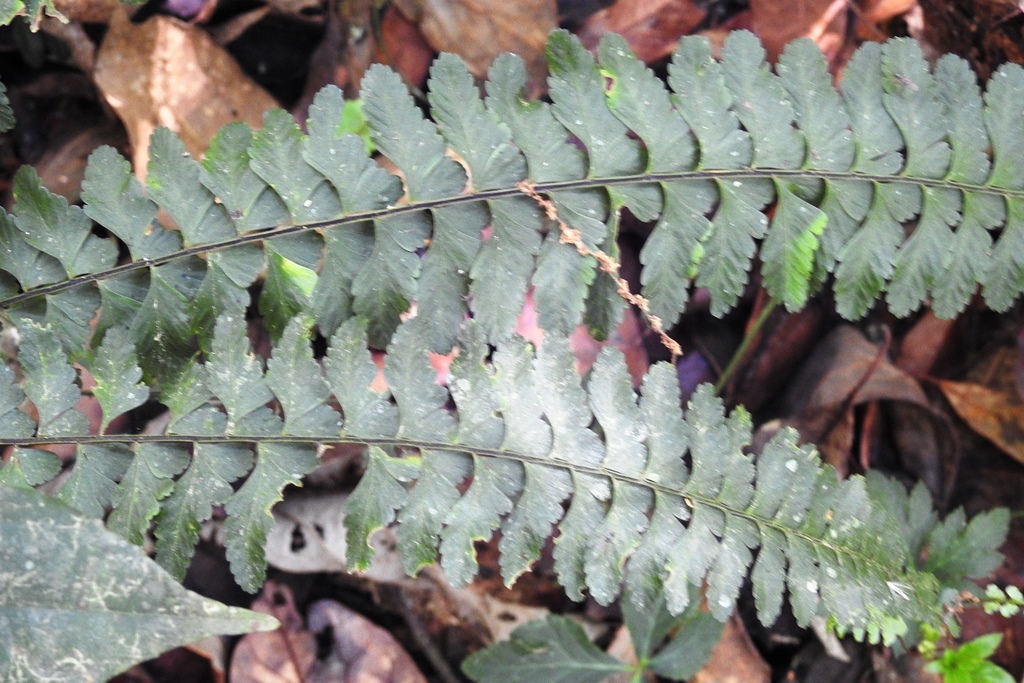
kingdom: Plantae
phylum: Tracheophyta
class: Polypodiopsida
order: Polypodiales
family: Aspleniaceae
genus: Asplenium
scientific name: Asplenium sessilifolium
